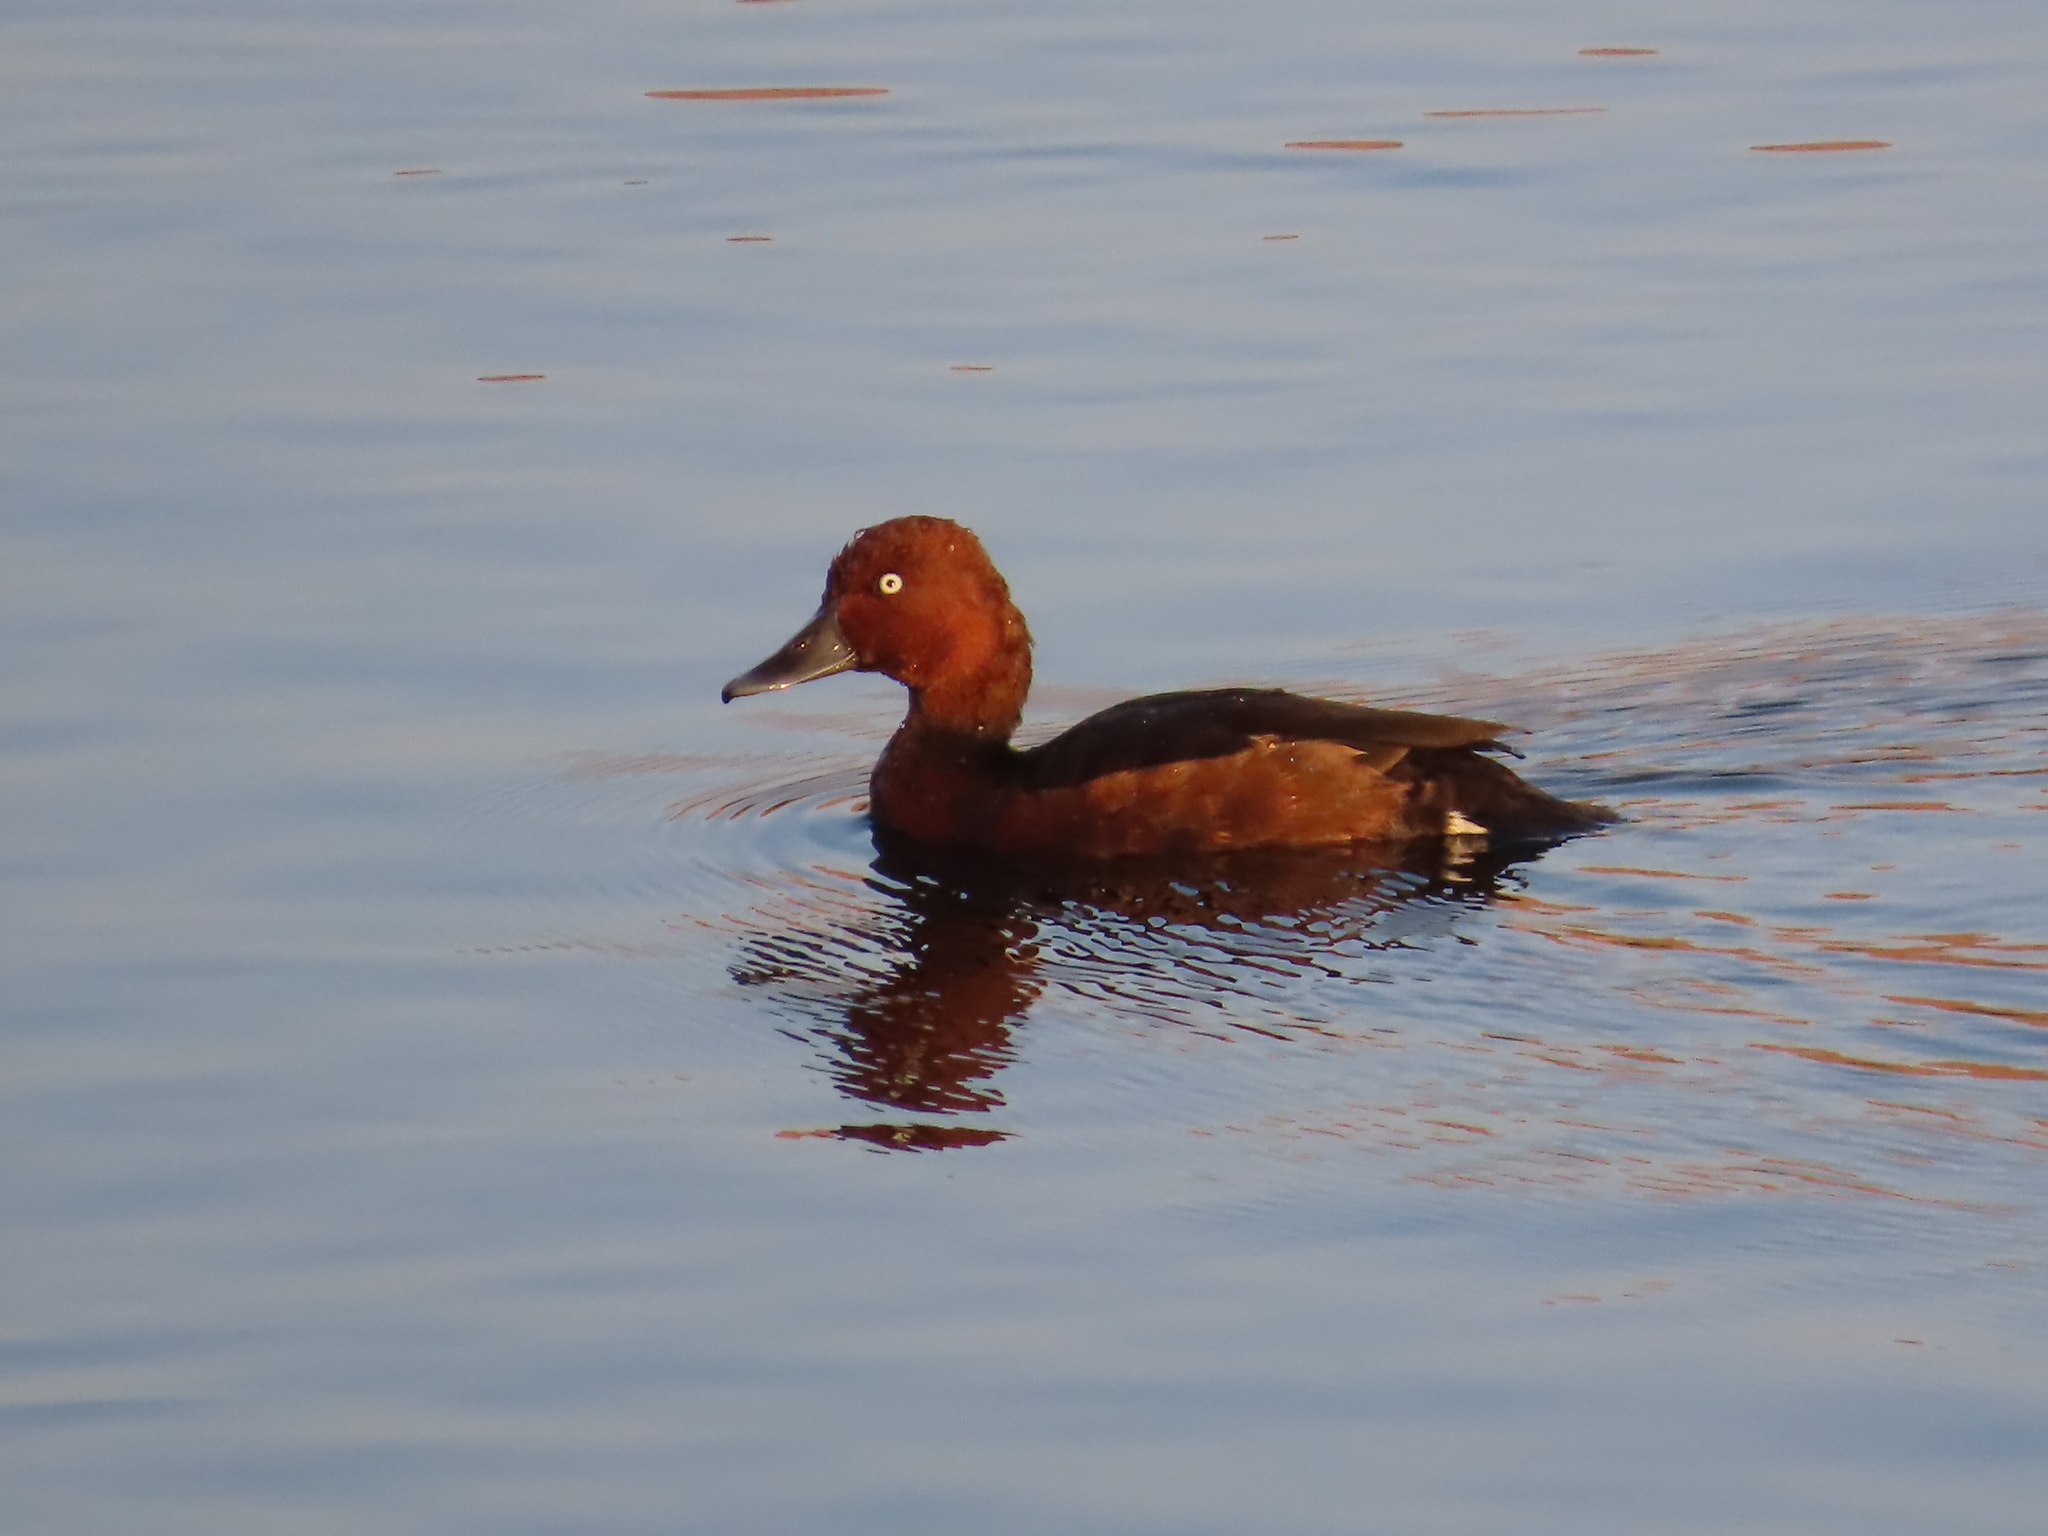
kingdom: Animalia
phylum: Chordata
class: Aves
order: Anseriformes
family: Anatidae
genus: Aythya
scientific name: Aythya nyroca
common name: Ferruginous duck
